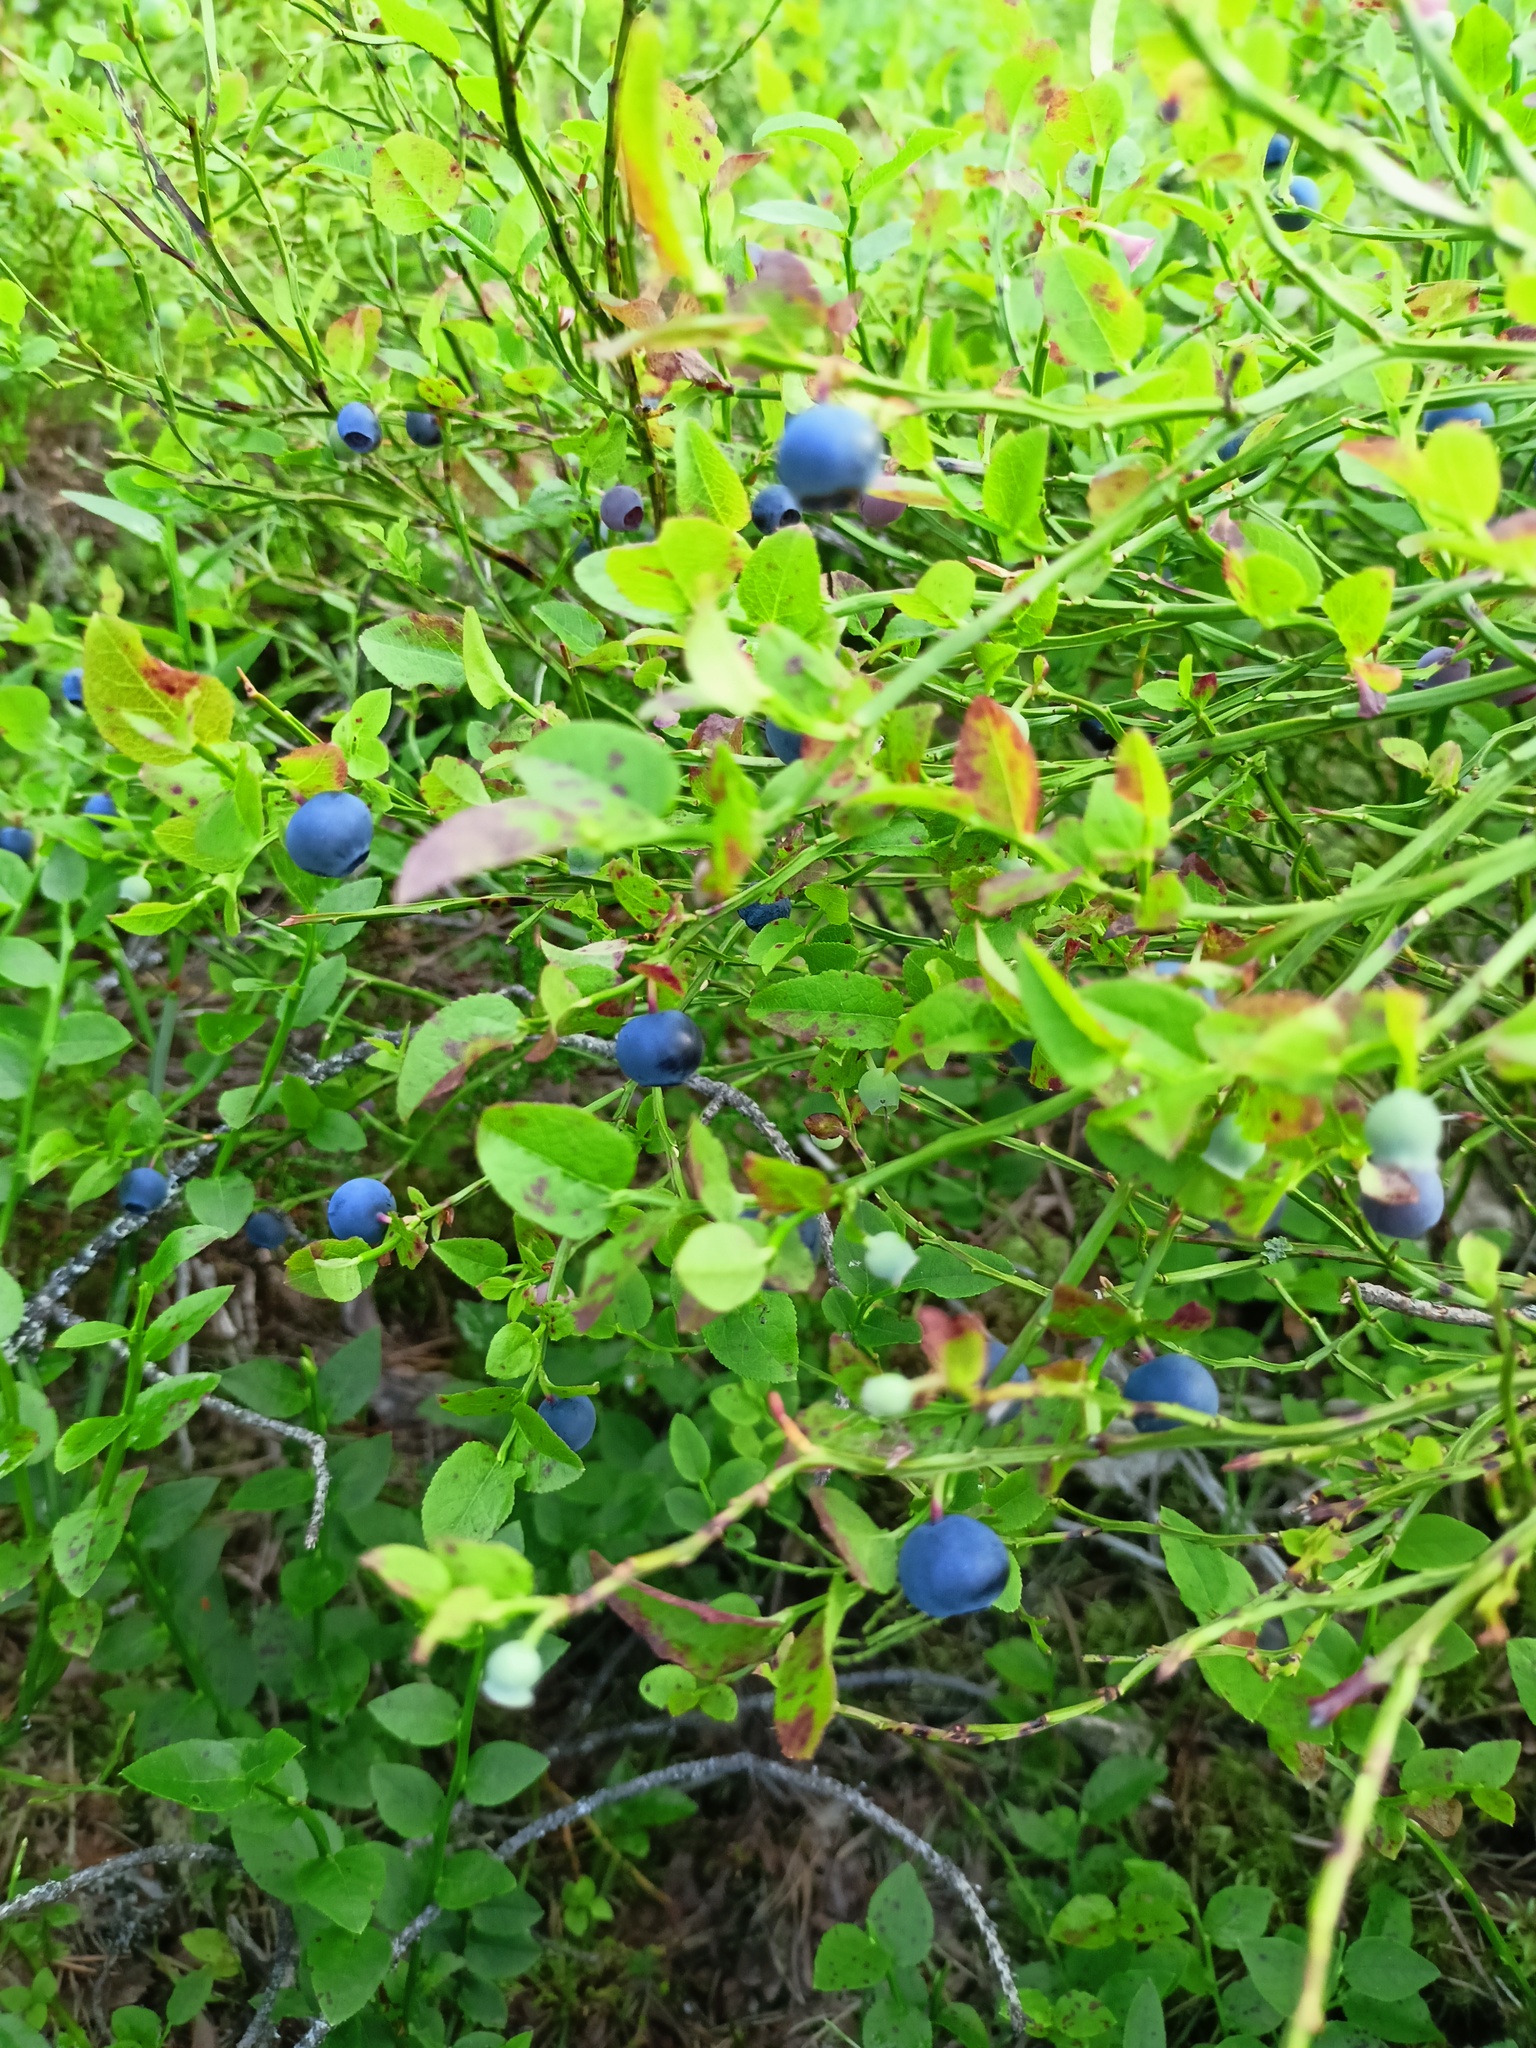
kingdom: Plantae
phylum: Tracheophyta
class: Magnoliopsida
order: Ericales
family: Ericaceae
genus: Vaccinium
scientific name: Vaccinium myrtillus
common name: Bilberry
